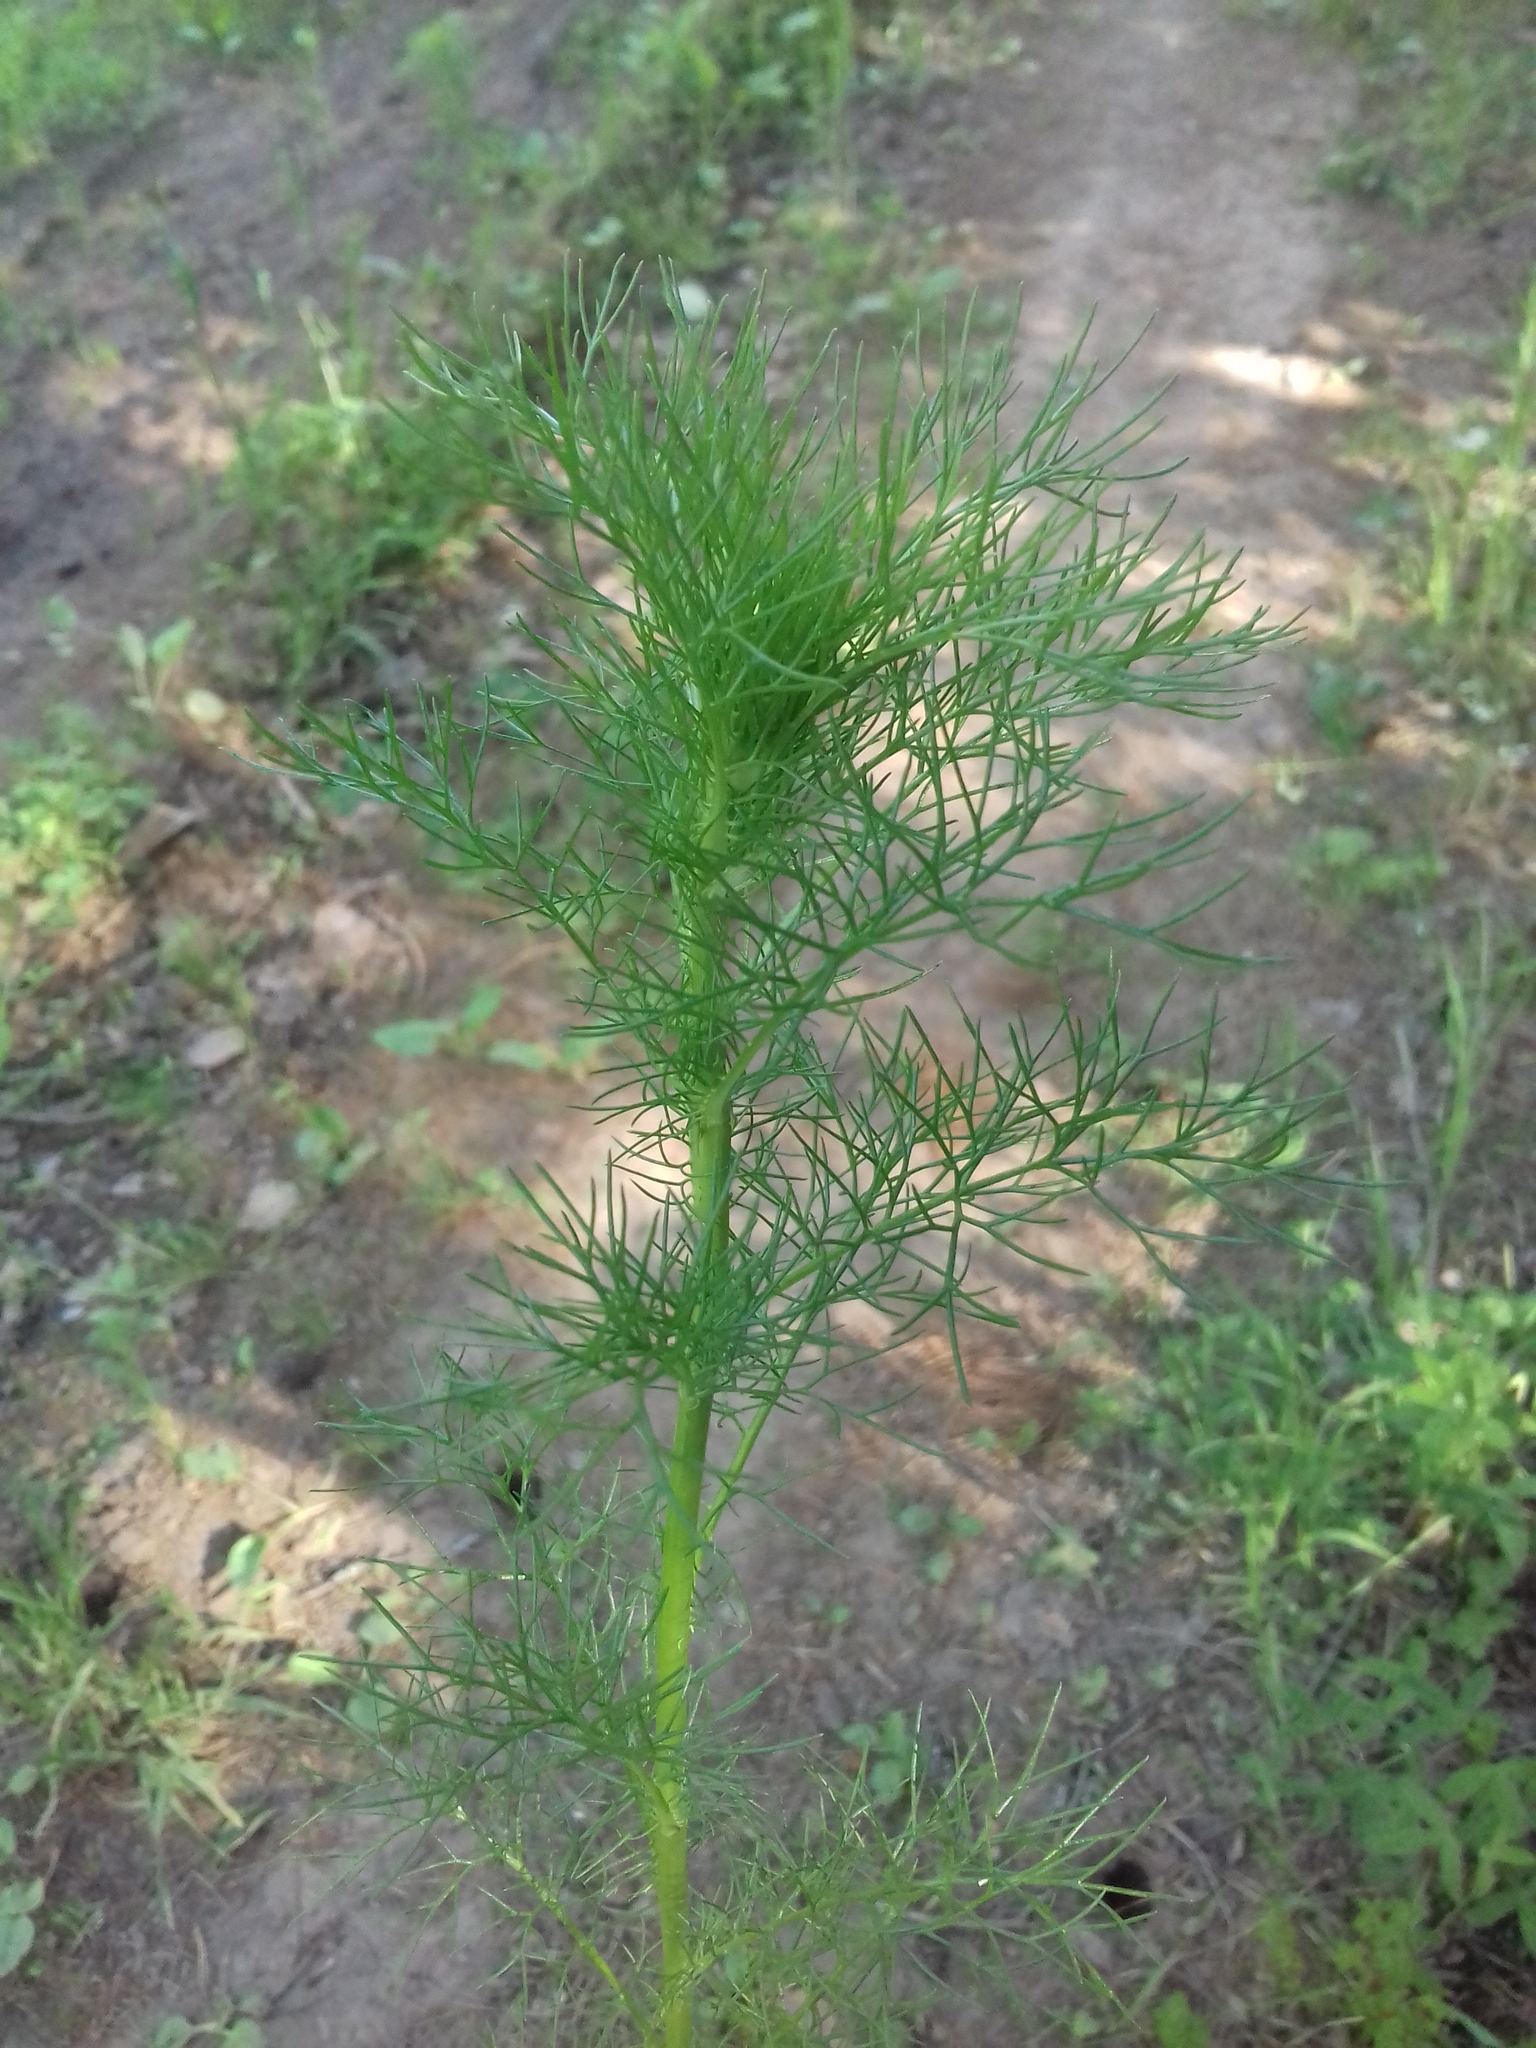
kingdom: Plantae
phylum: Tracheophyta
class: Magnoliopsida
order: Asterales
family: Asteraceae
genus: Tripleurospermum
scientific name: Tripleurospermum inodorum
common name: Scentless mayweed
